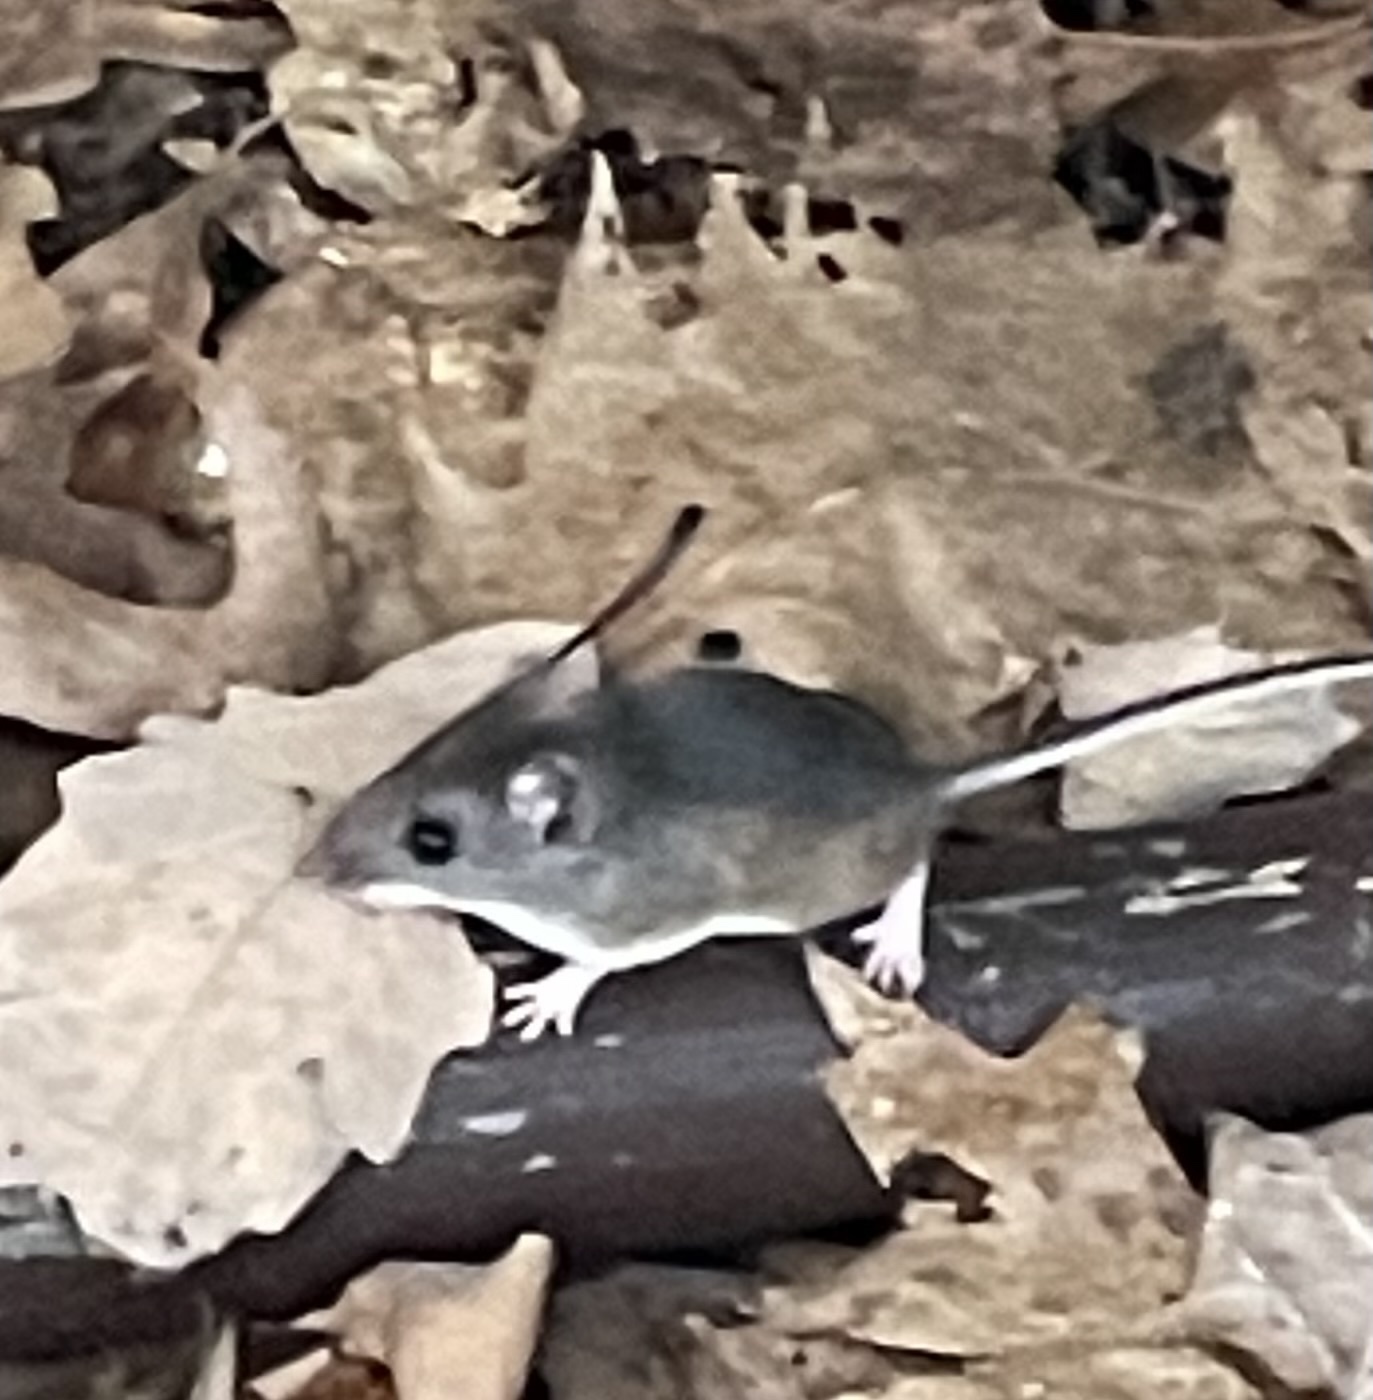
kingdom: Animalia
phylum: Chordata
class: Mammalia
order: Rodentia
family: Cricetidae
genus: Peromyscus
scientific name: Peromyscus leucopus
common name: White-footed deermouse
